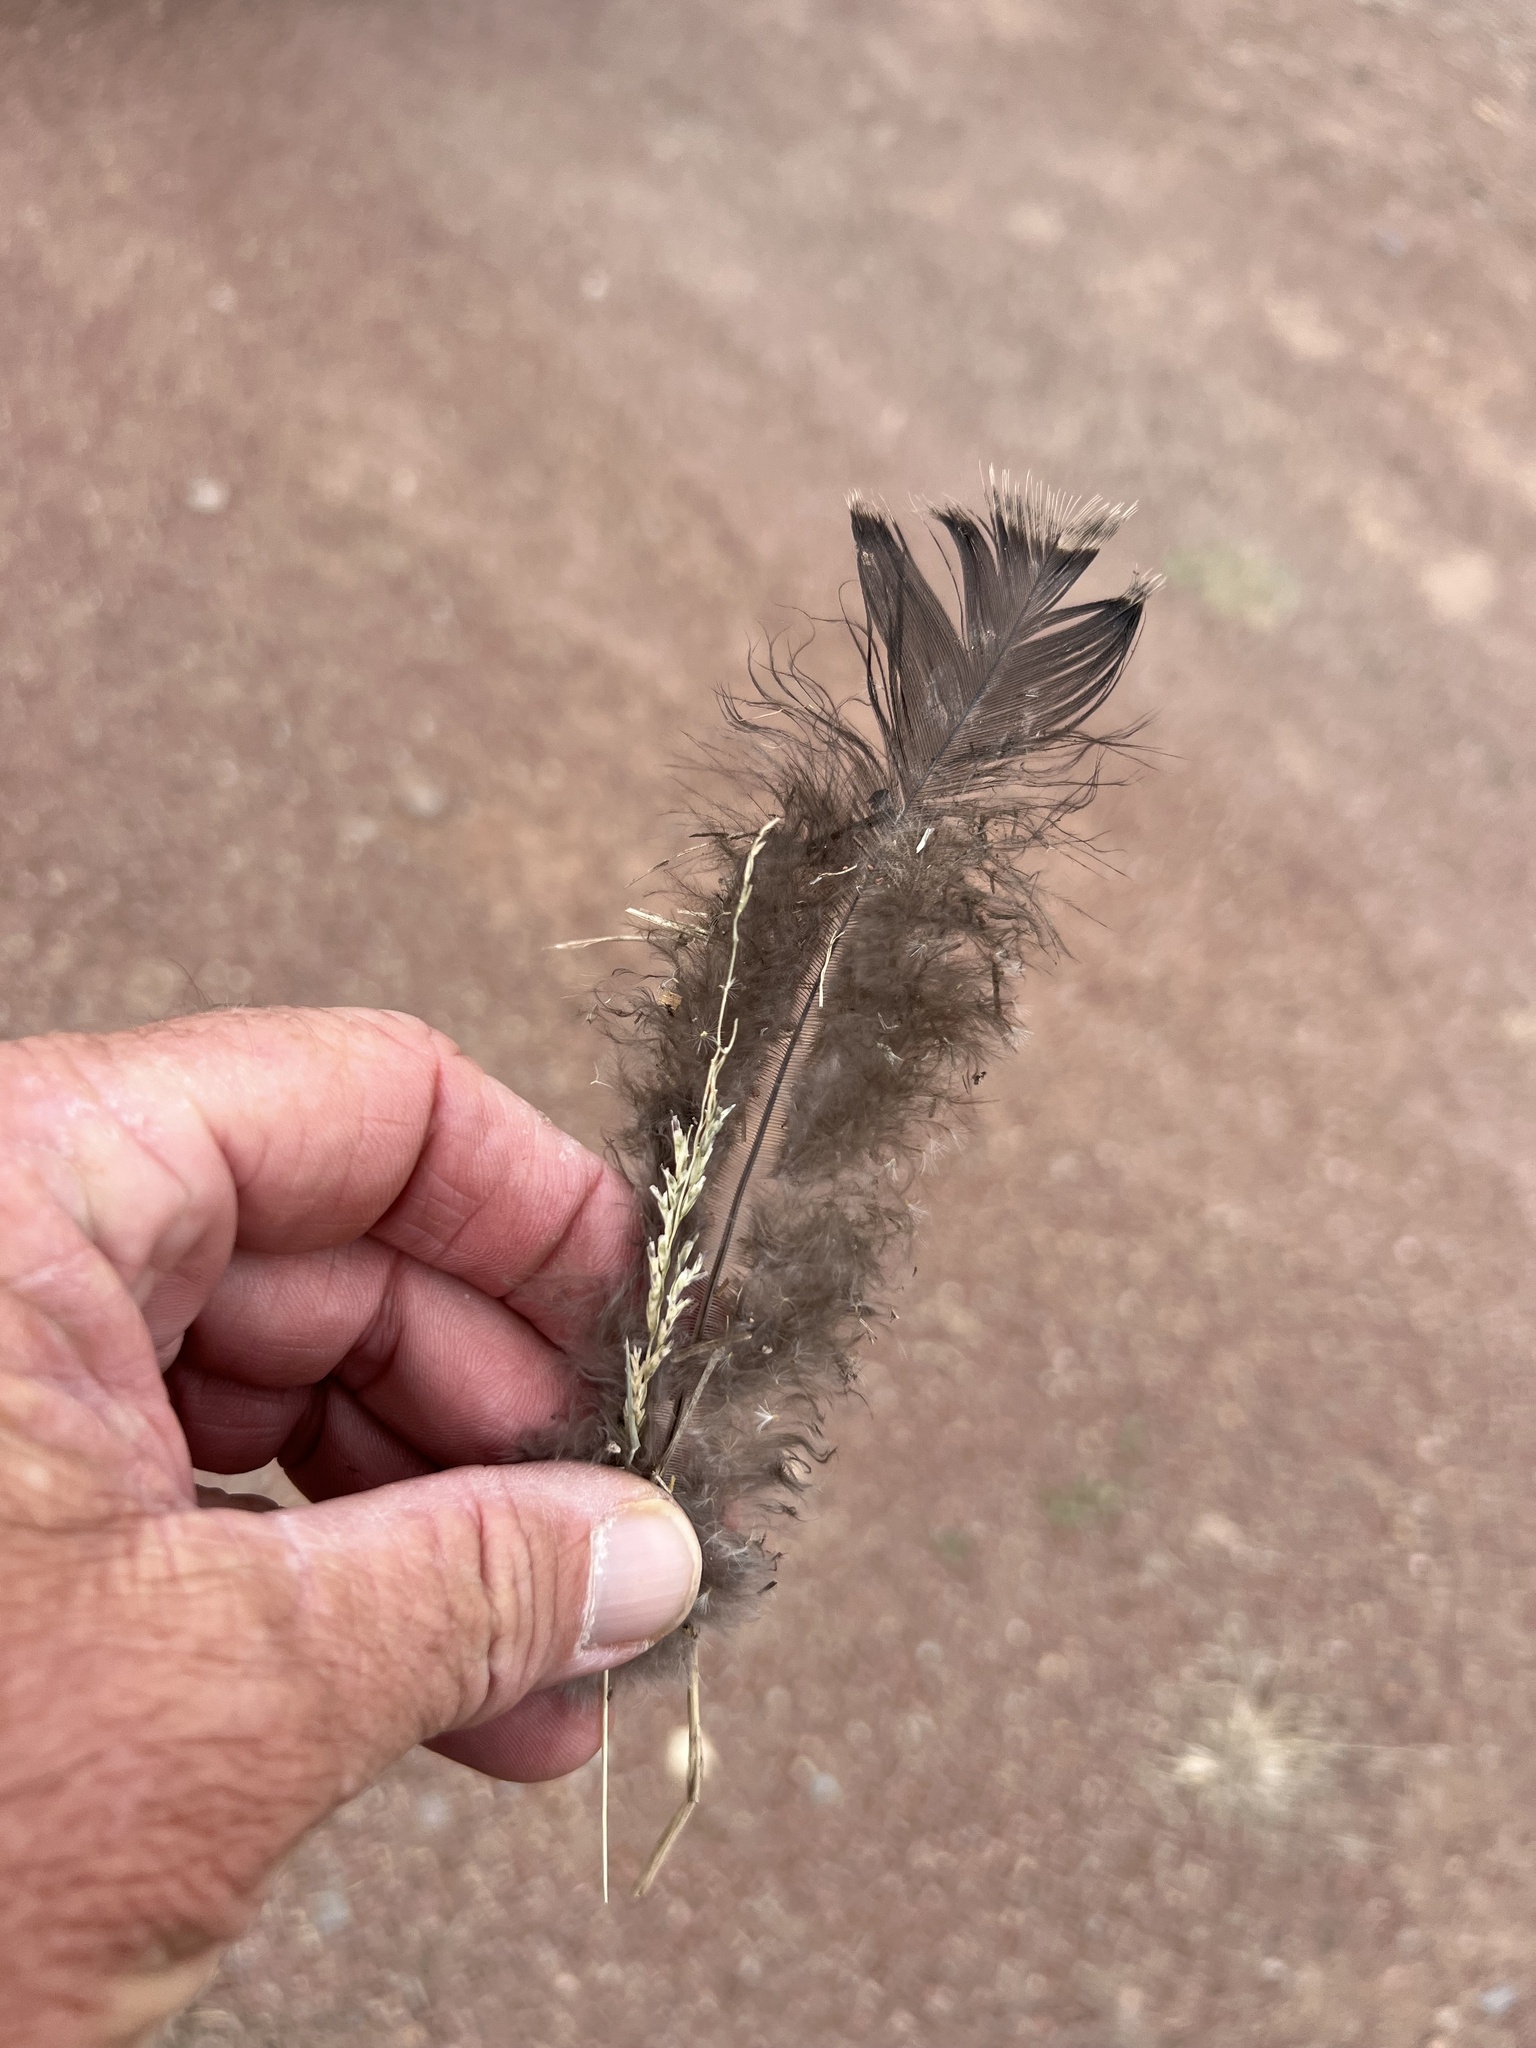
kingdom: Animalia
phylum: Chordata
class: Aves
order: Galliformes
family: Phasianidae
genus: Meleagris
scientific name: Meleagris gallopavo
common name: Wild turkey
